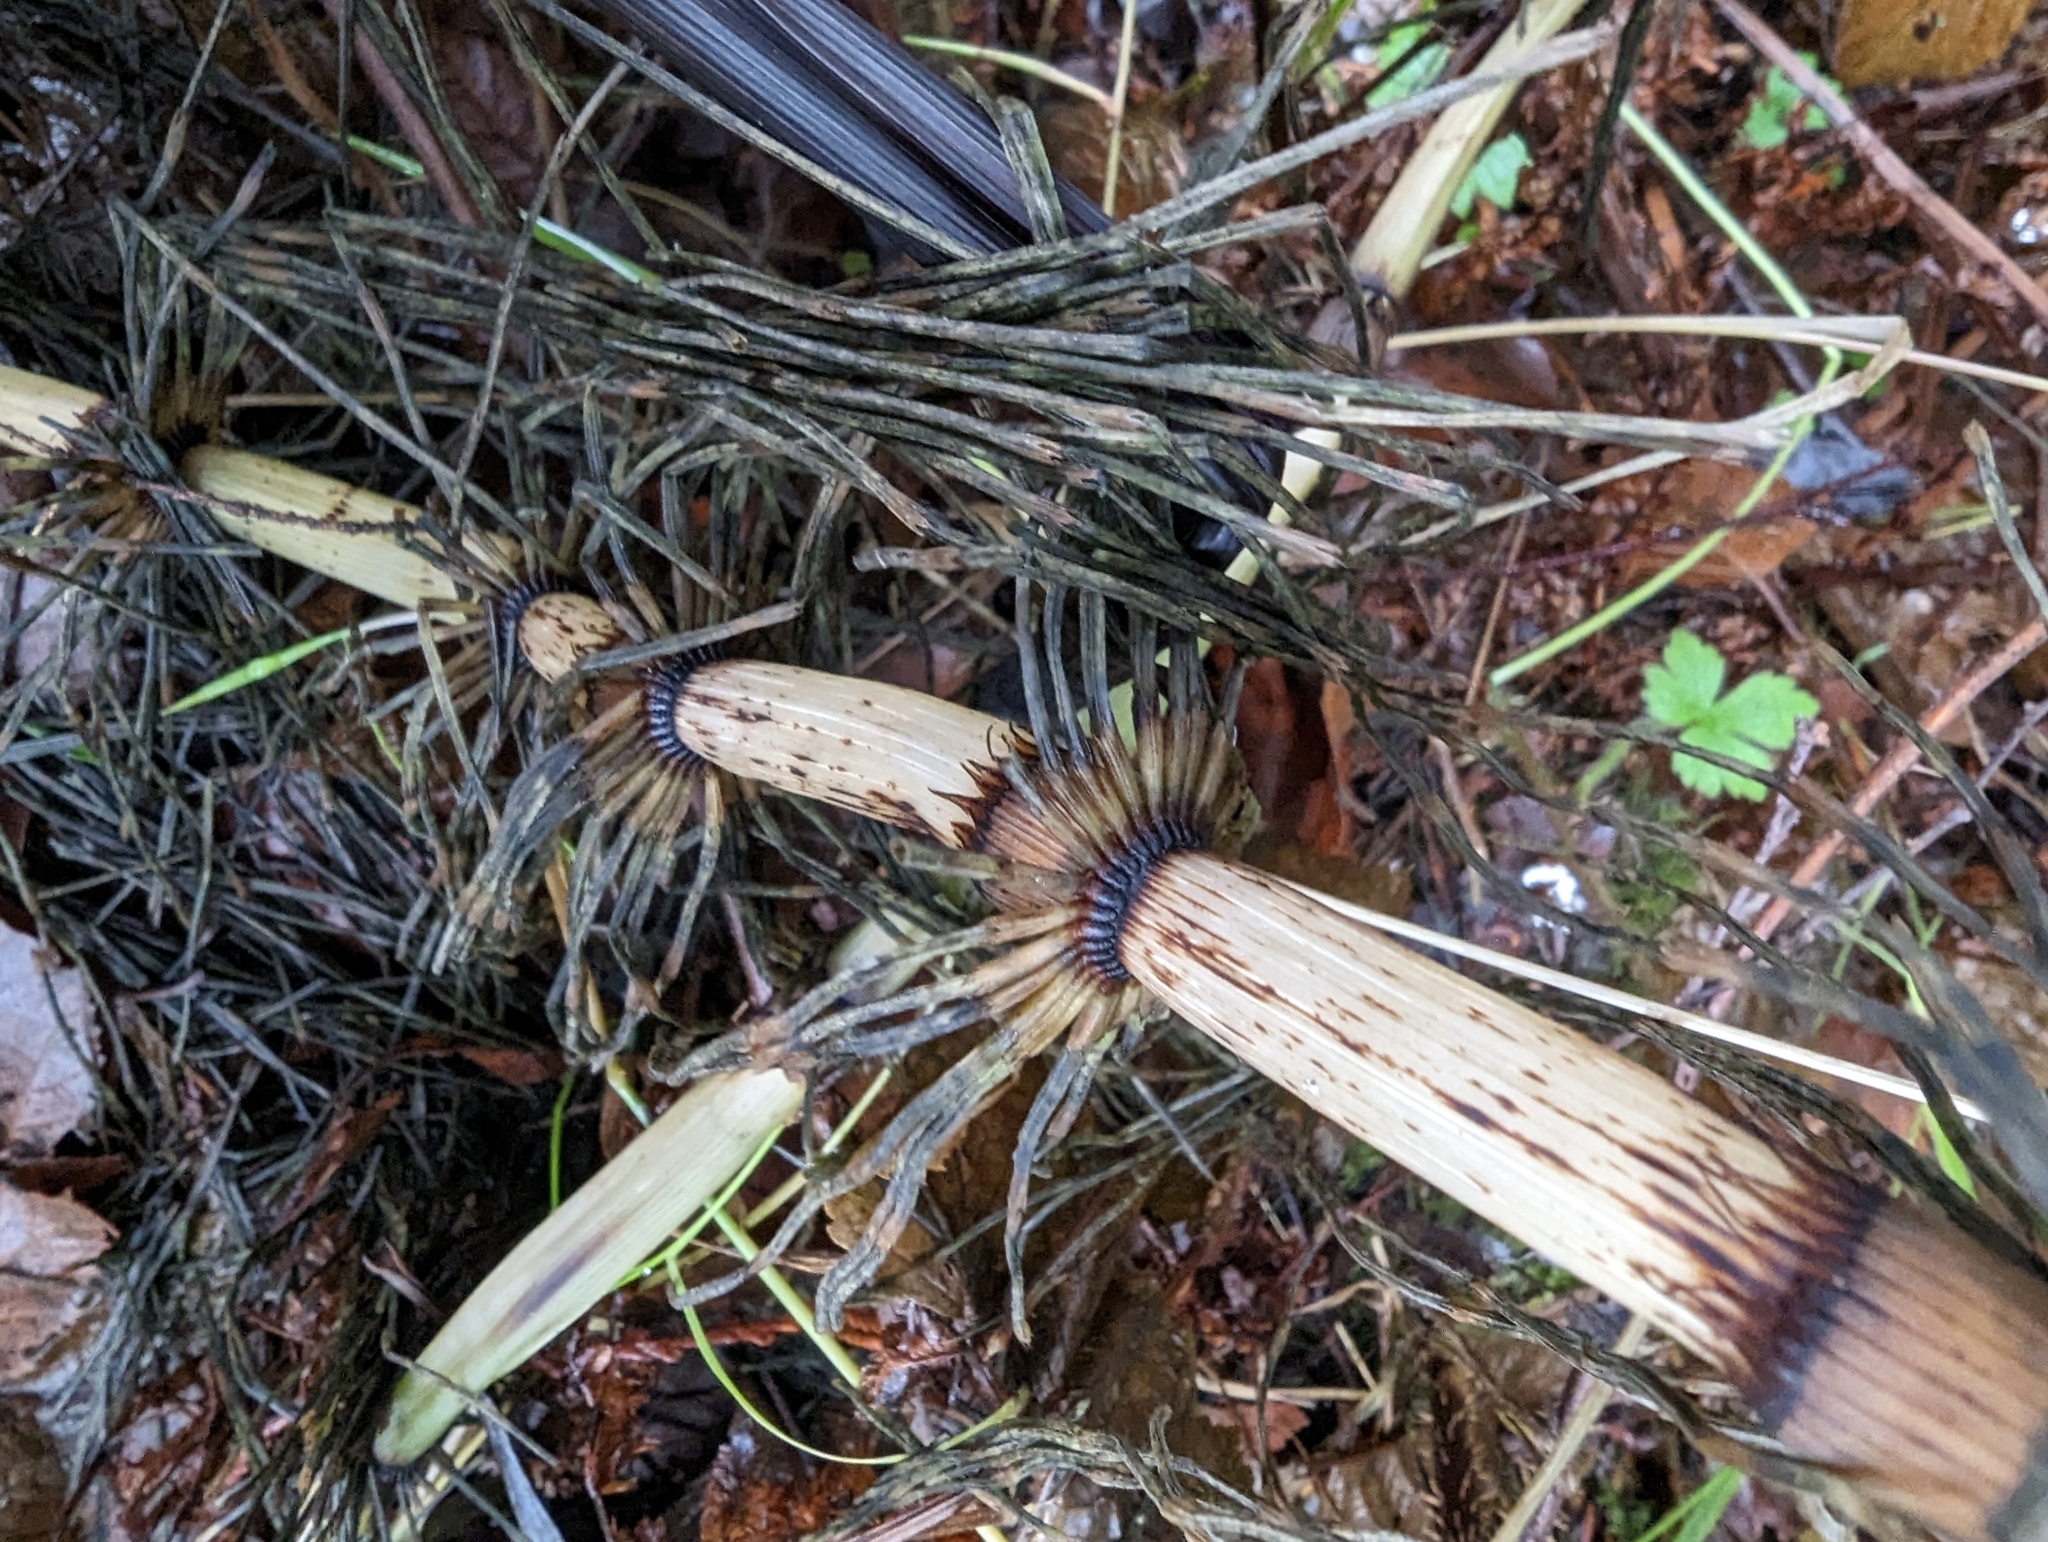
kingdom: Plantae
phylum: Tracheophyta
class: Polypodiopsida
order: Equisetales
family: Equisetaceae
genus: Equisetum
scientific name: Equisetum braunii
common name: Braun's horsetail
